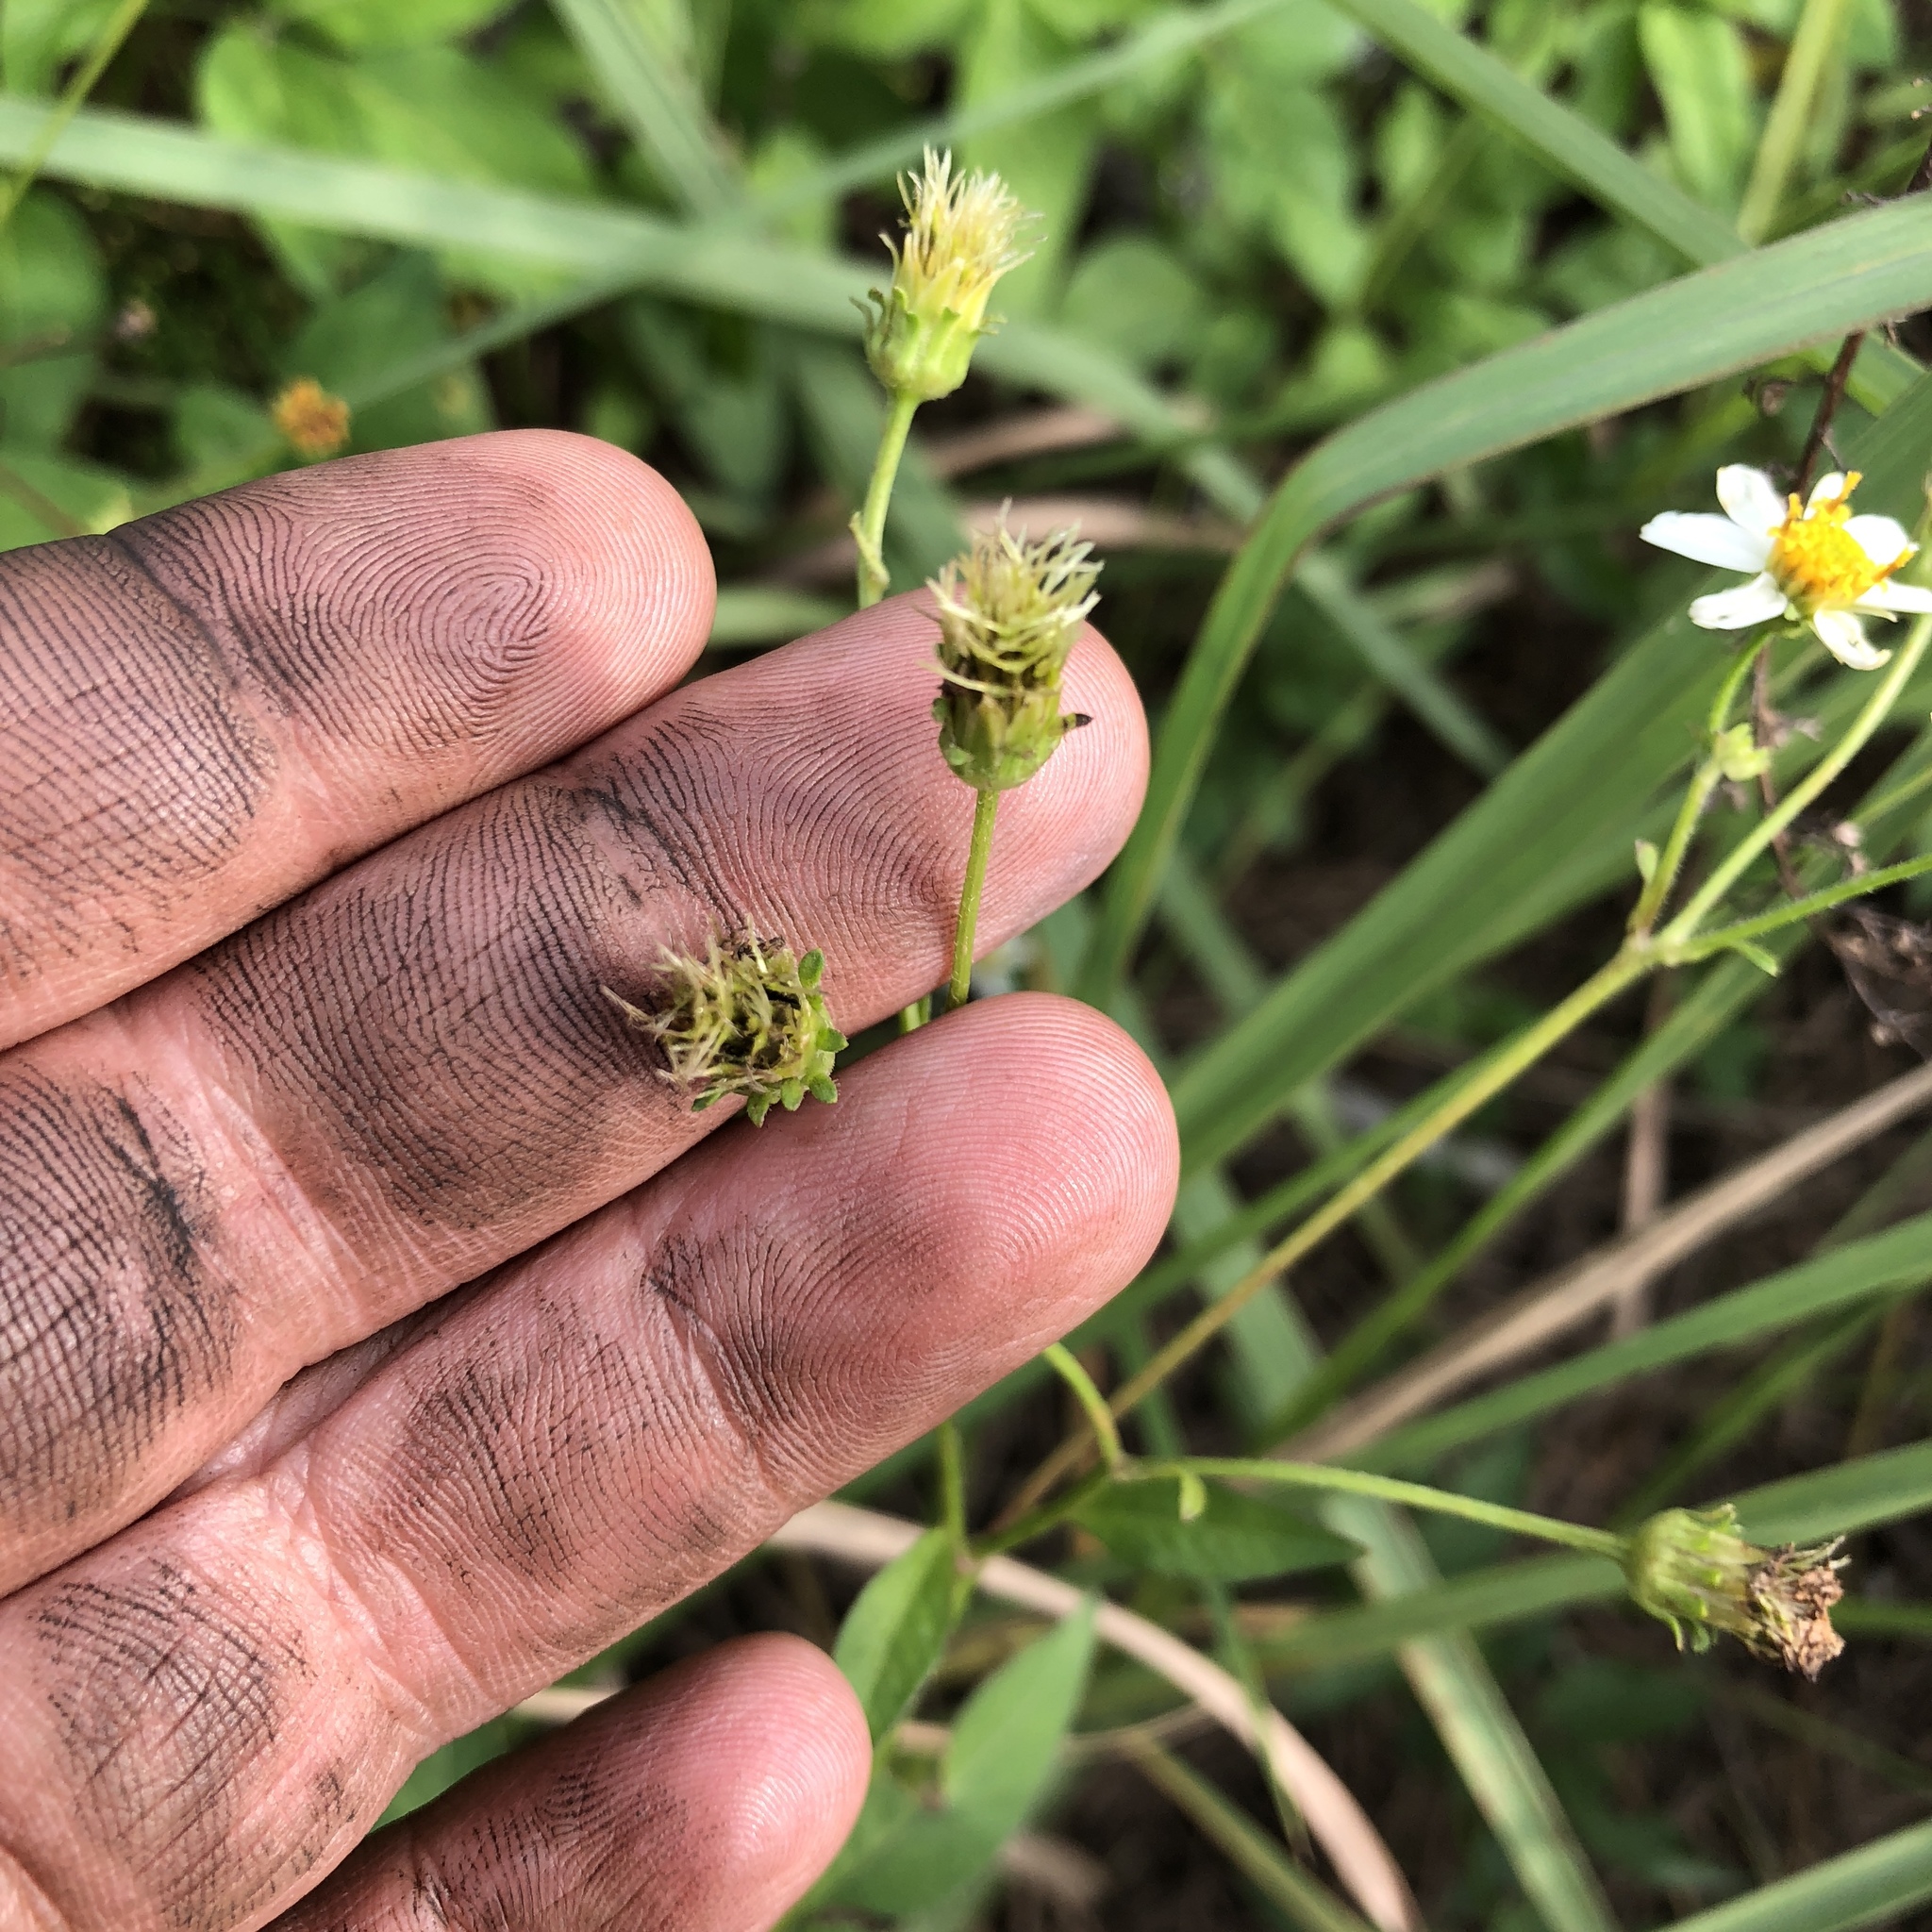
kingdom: Plantae
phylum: Tracheophyta
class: Magnoliopsida
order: Asterales
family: Asteraceae
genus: Bidens
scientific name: Bidens alba
